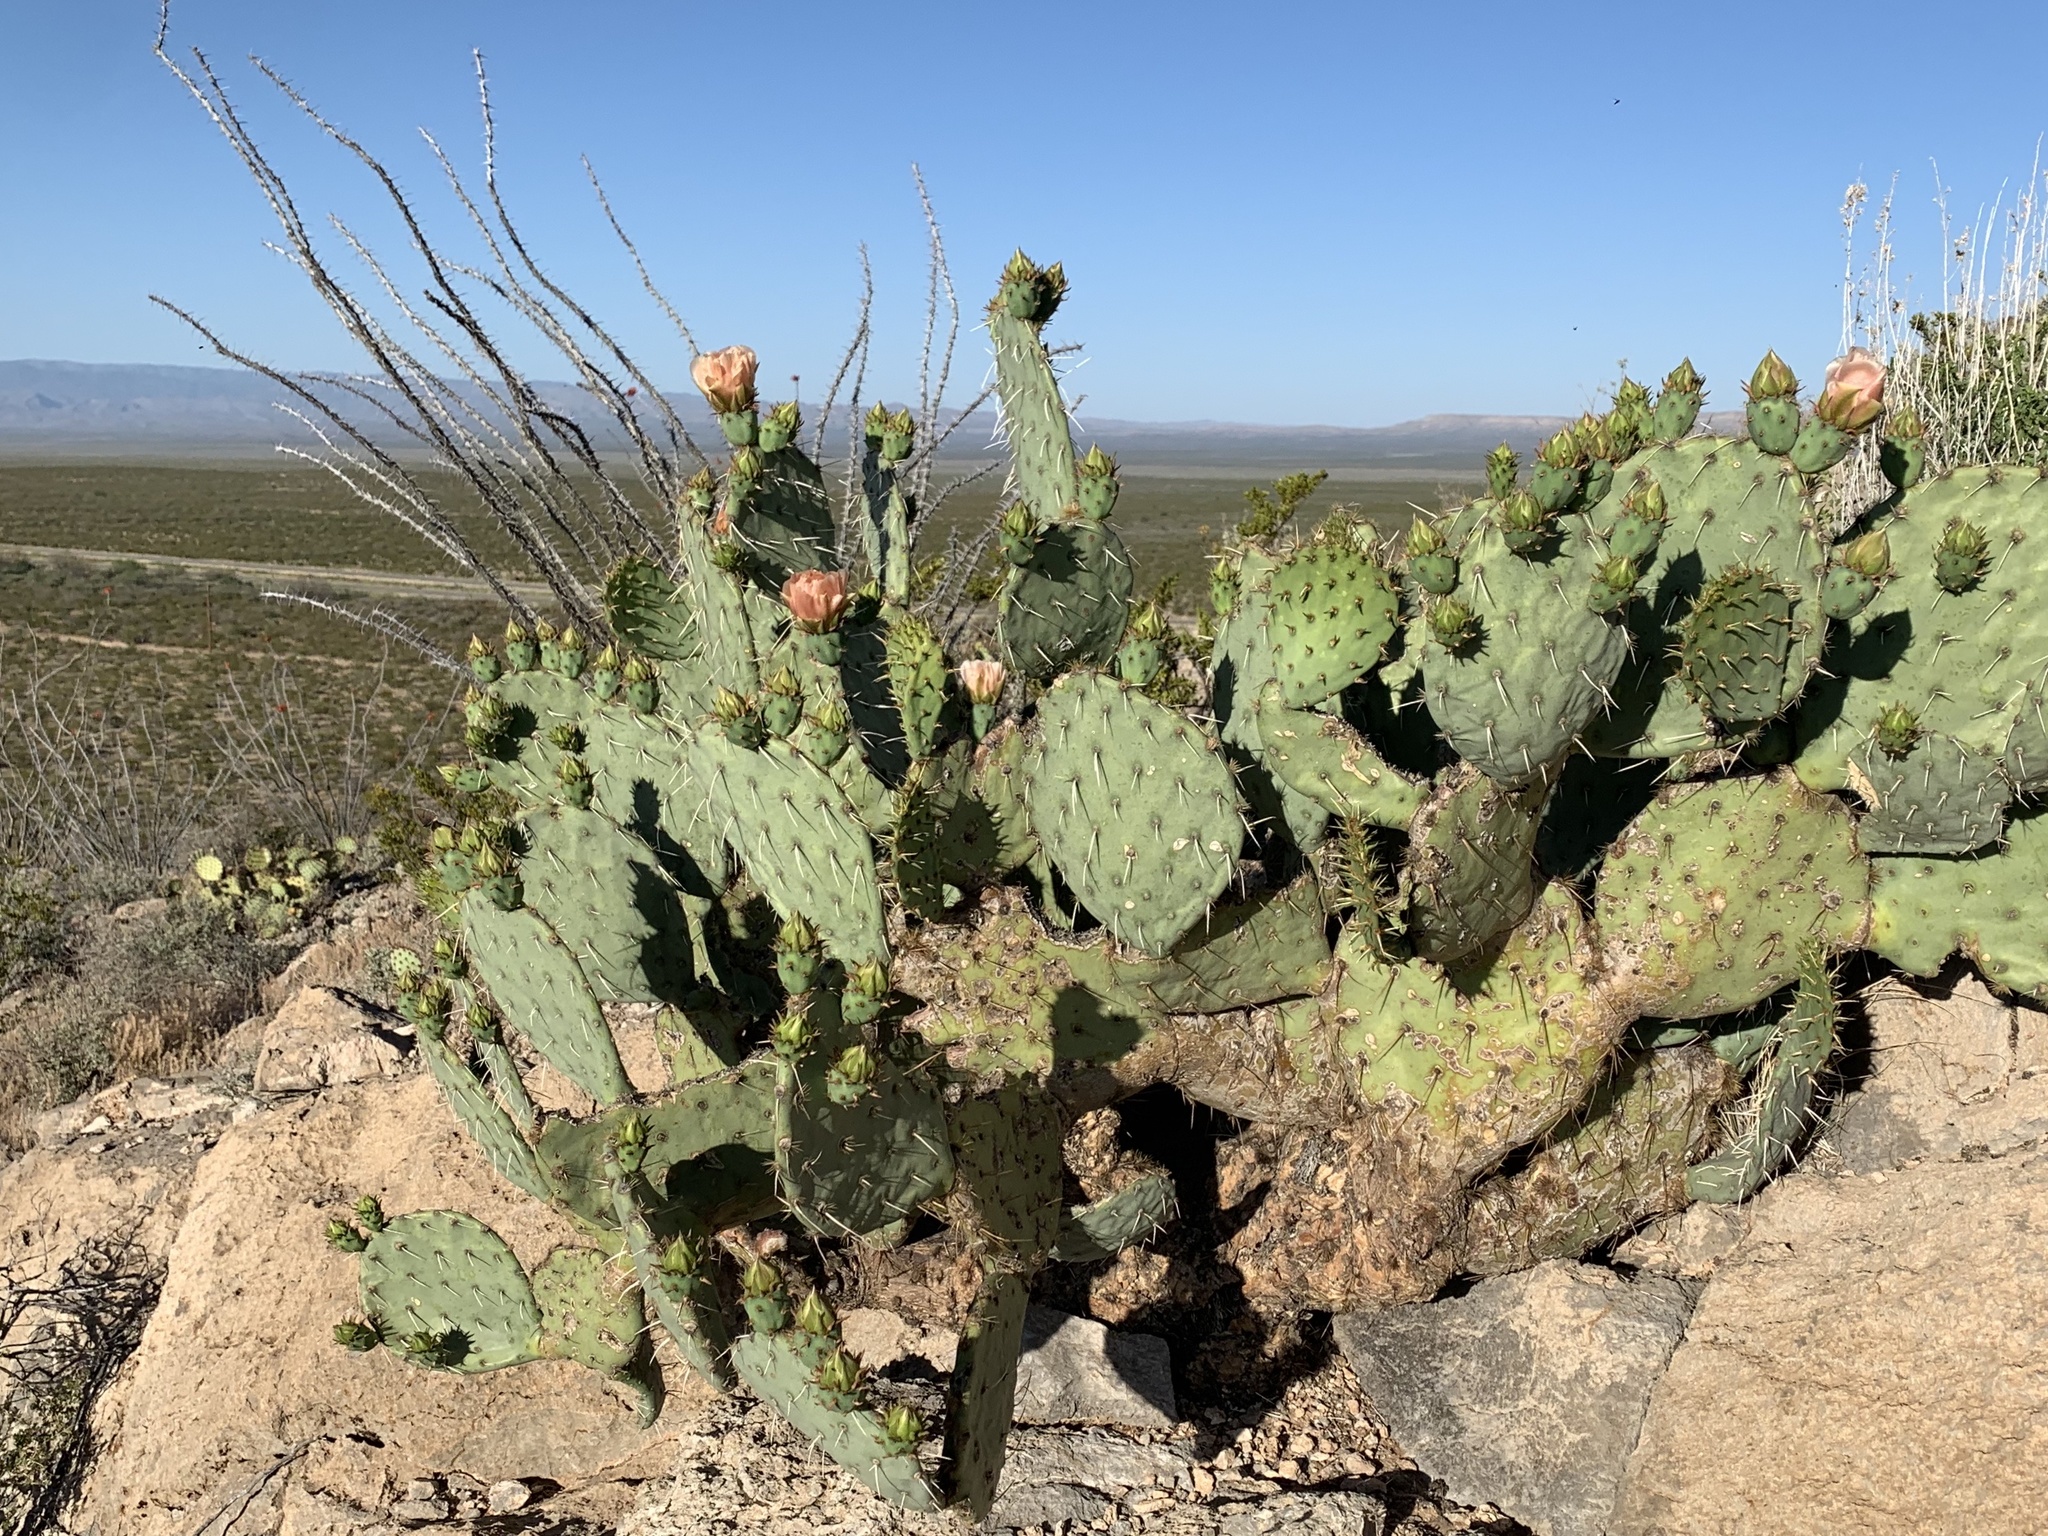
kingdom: Plantae
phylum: Tracheophyta
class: Magnoliopsida
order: Caryophyllales
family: Cactaceae
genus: Opuntia
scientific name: Opuntia engelmannii
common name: Cactus-apple
